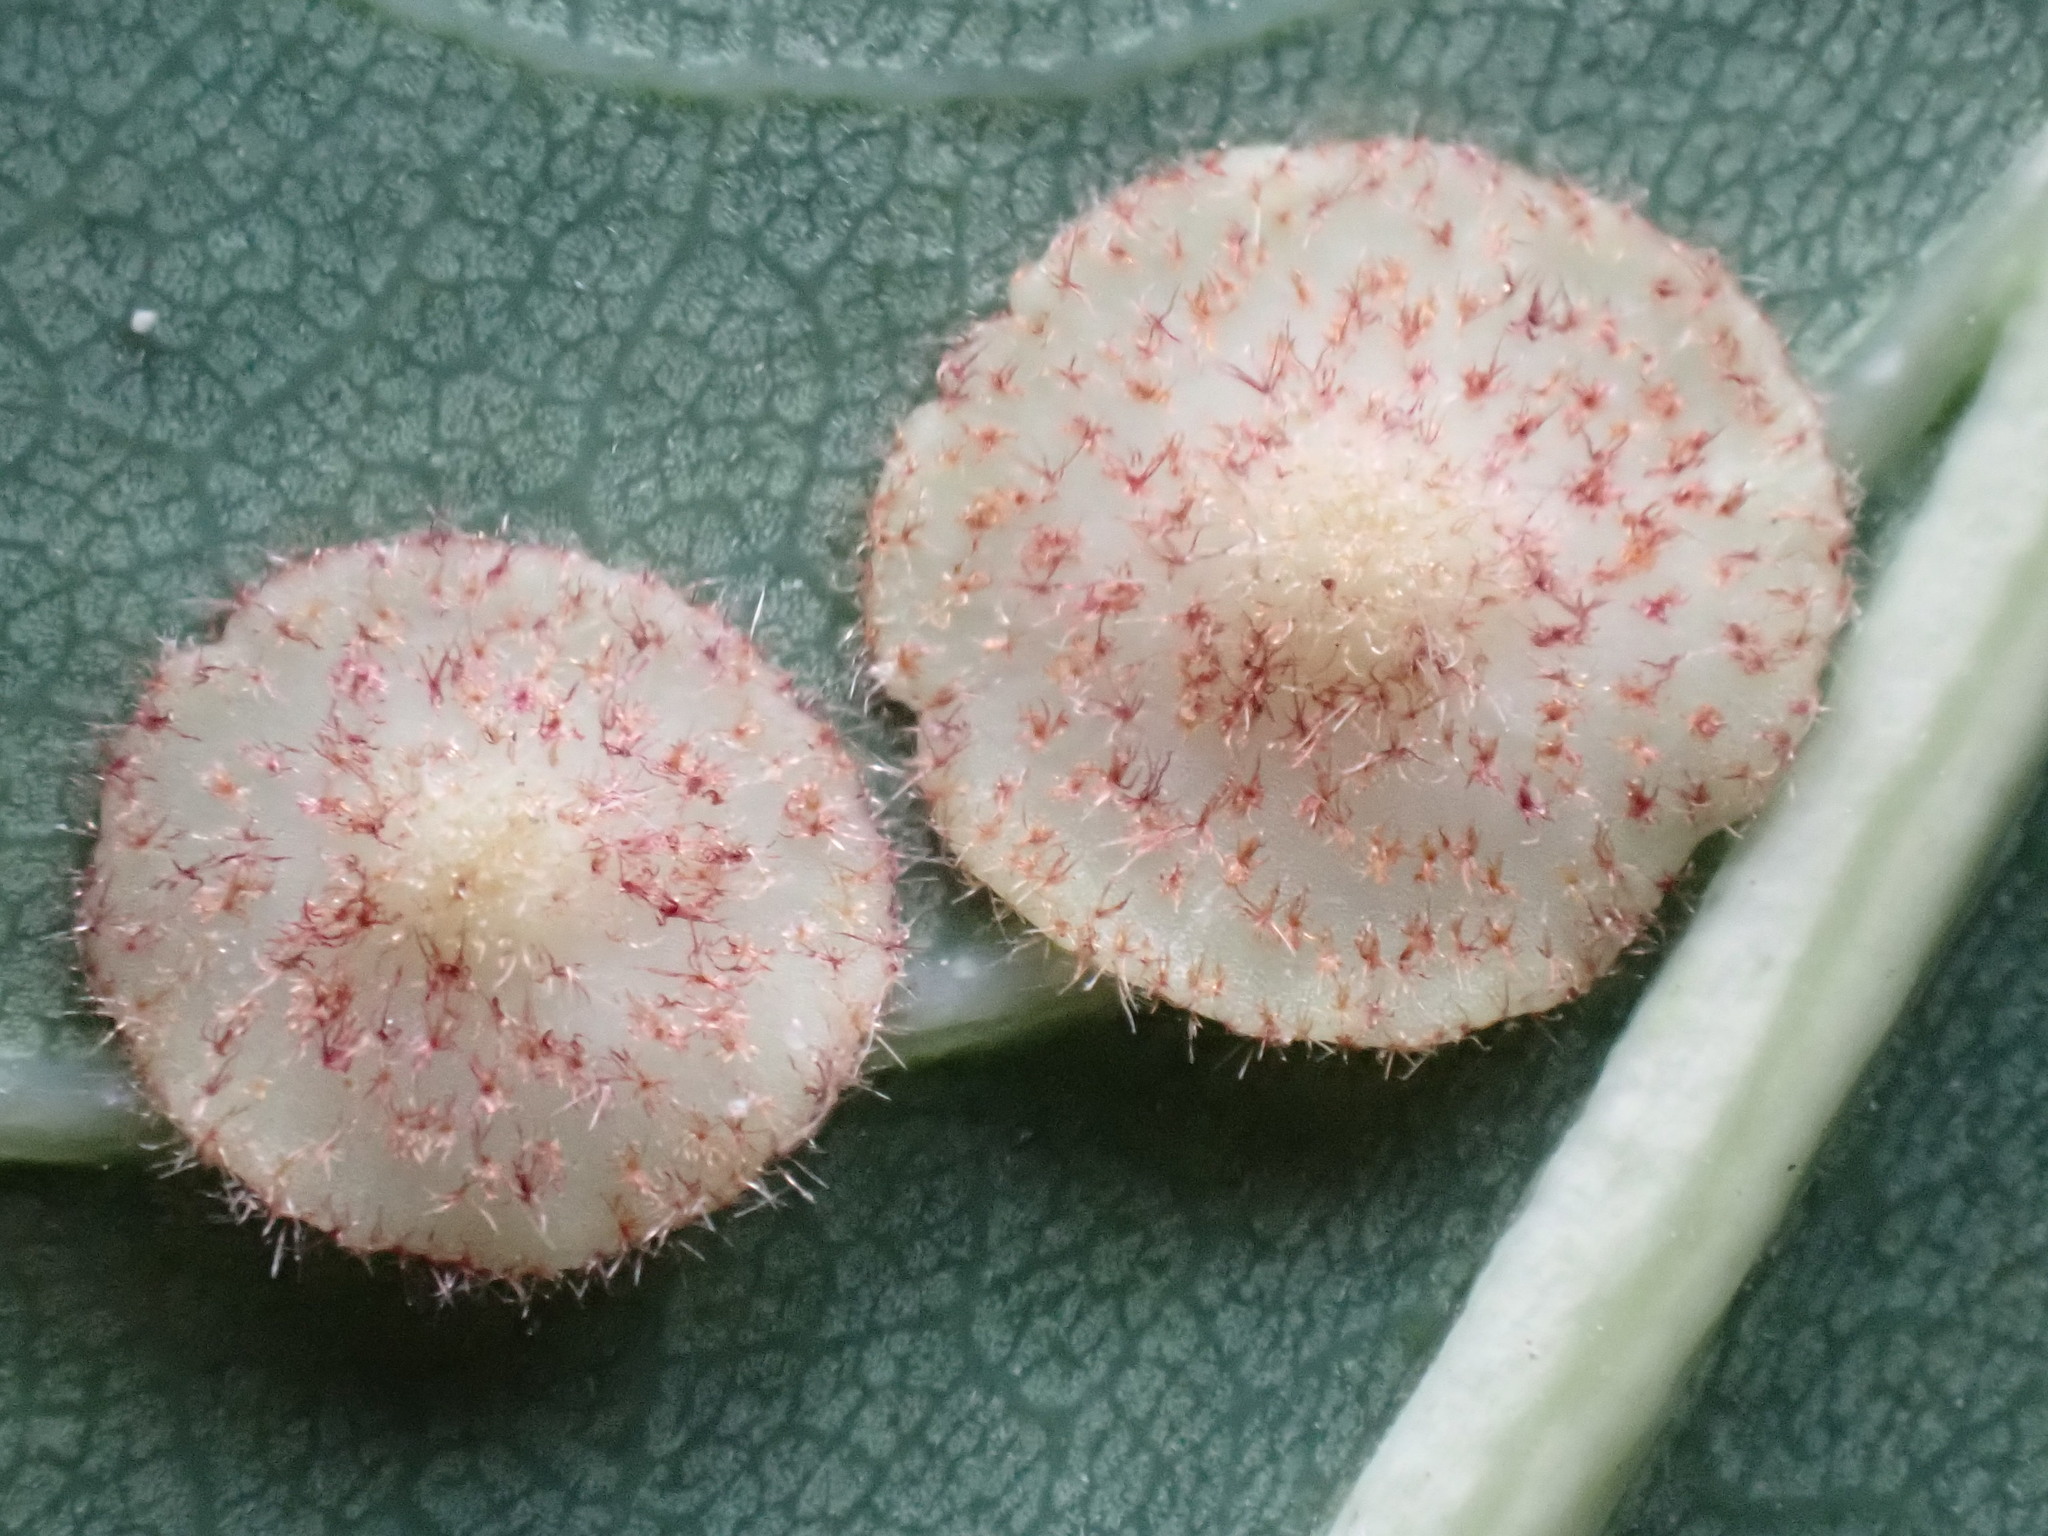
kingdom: Animalia
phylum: Arthropoda
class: Insecta
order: Hymenoptera
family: Cynipidae
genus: Neuroterus
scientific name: Neuroterus quercusbaccarum
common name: Common spangle gall
